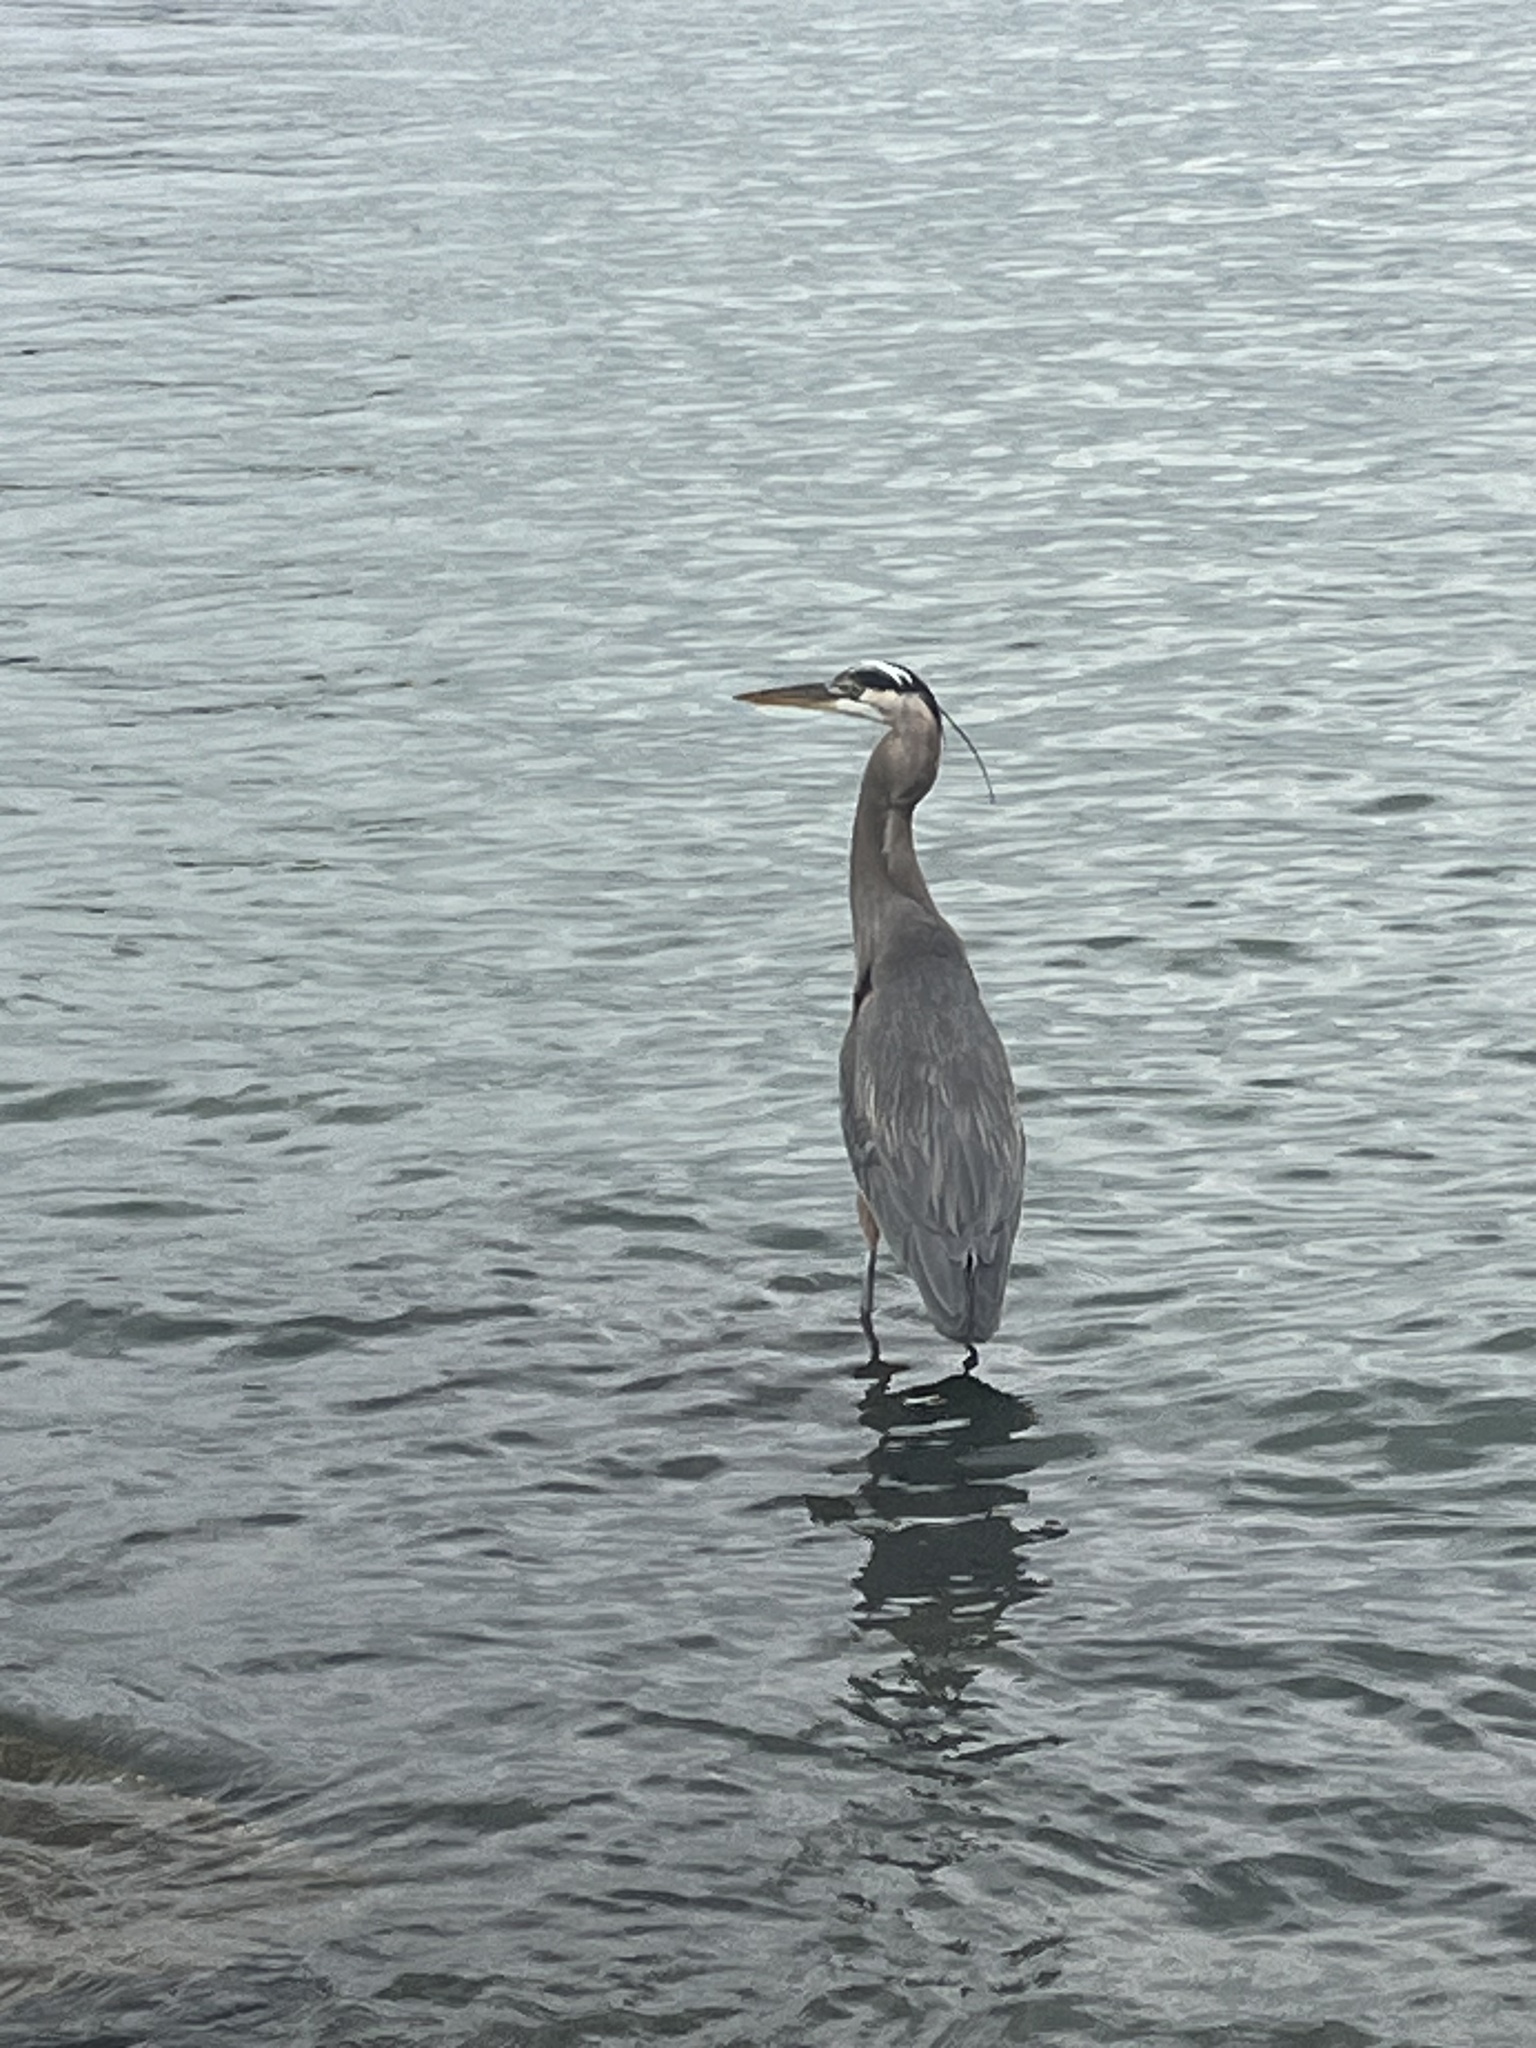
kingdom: Animalia
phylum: Chordata
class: Aves
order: Pelecaniformes
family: Ardeidae
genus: Ardea
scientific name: Ardea herodias
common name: Great blue heron
